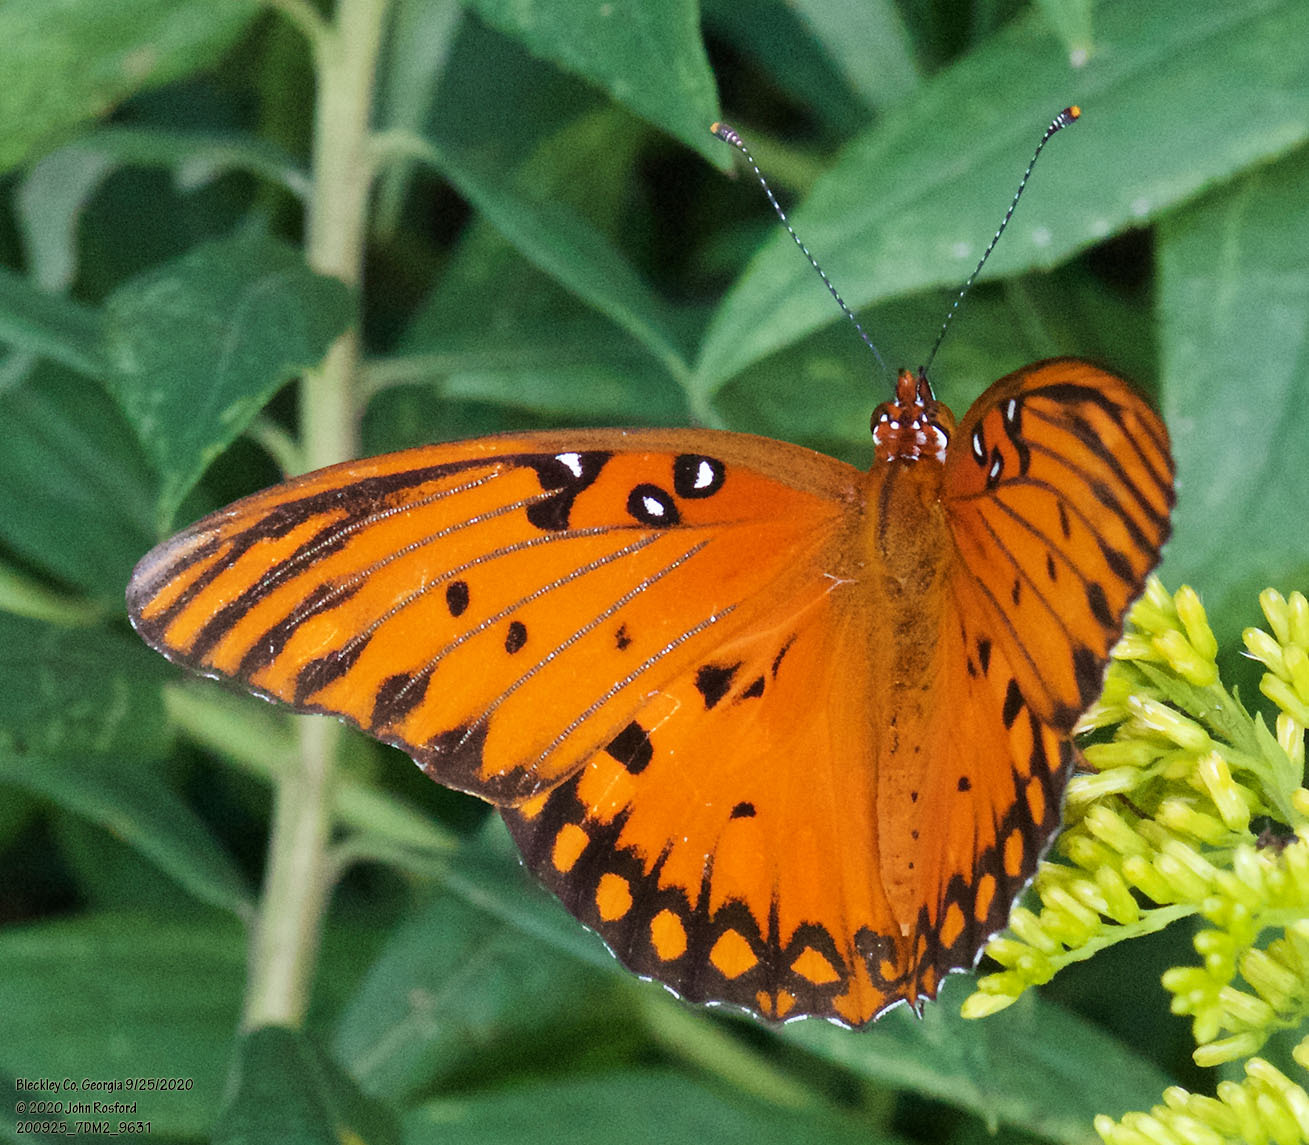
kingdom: Animalia
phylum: Arthropoda
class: Insecta
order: Lepidoptera
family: Nymphalidae
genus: Dione
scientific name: Dione vanillae
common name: Gulf fritillary
